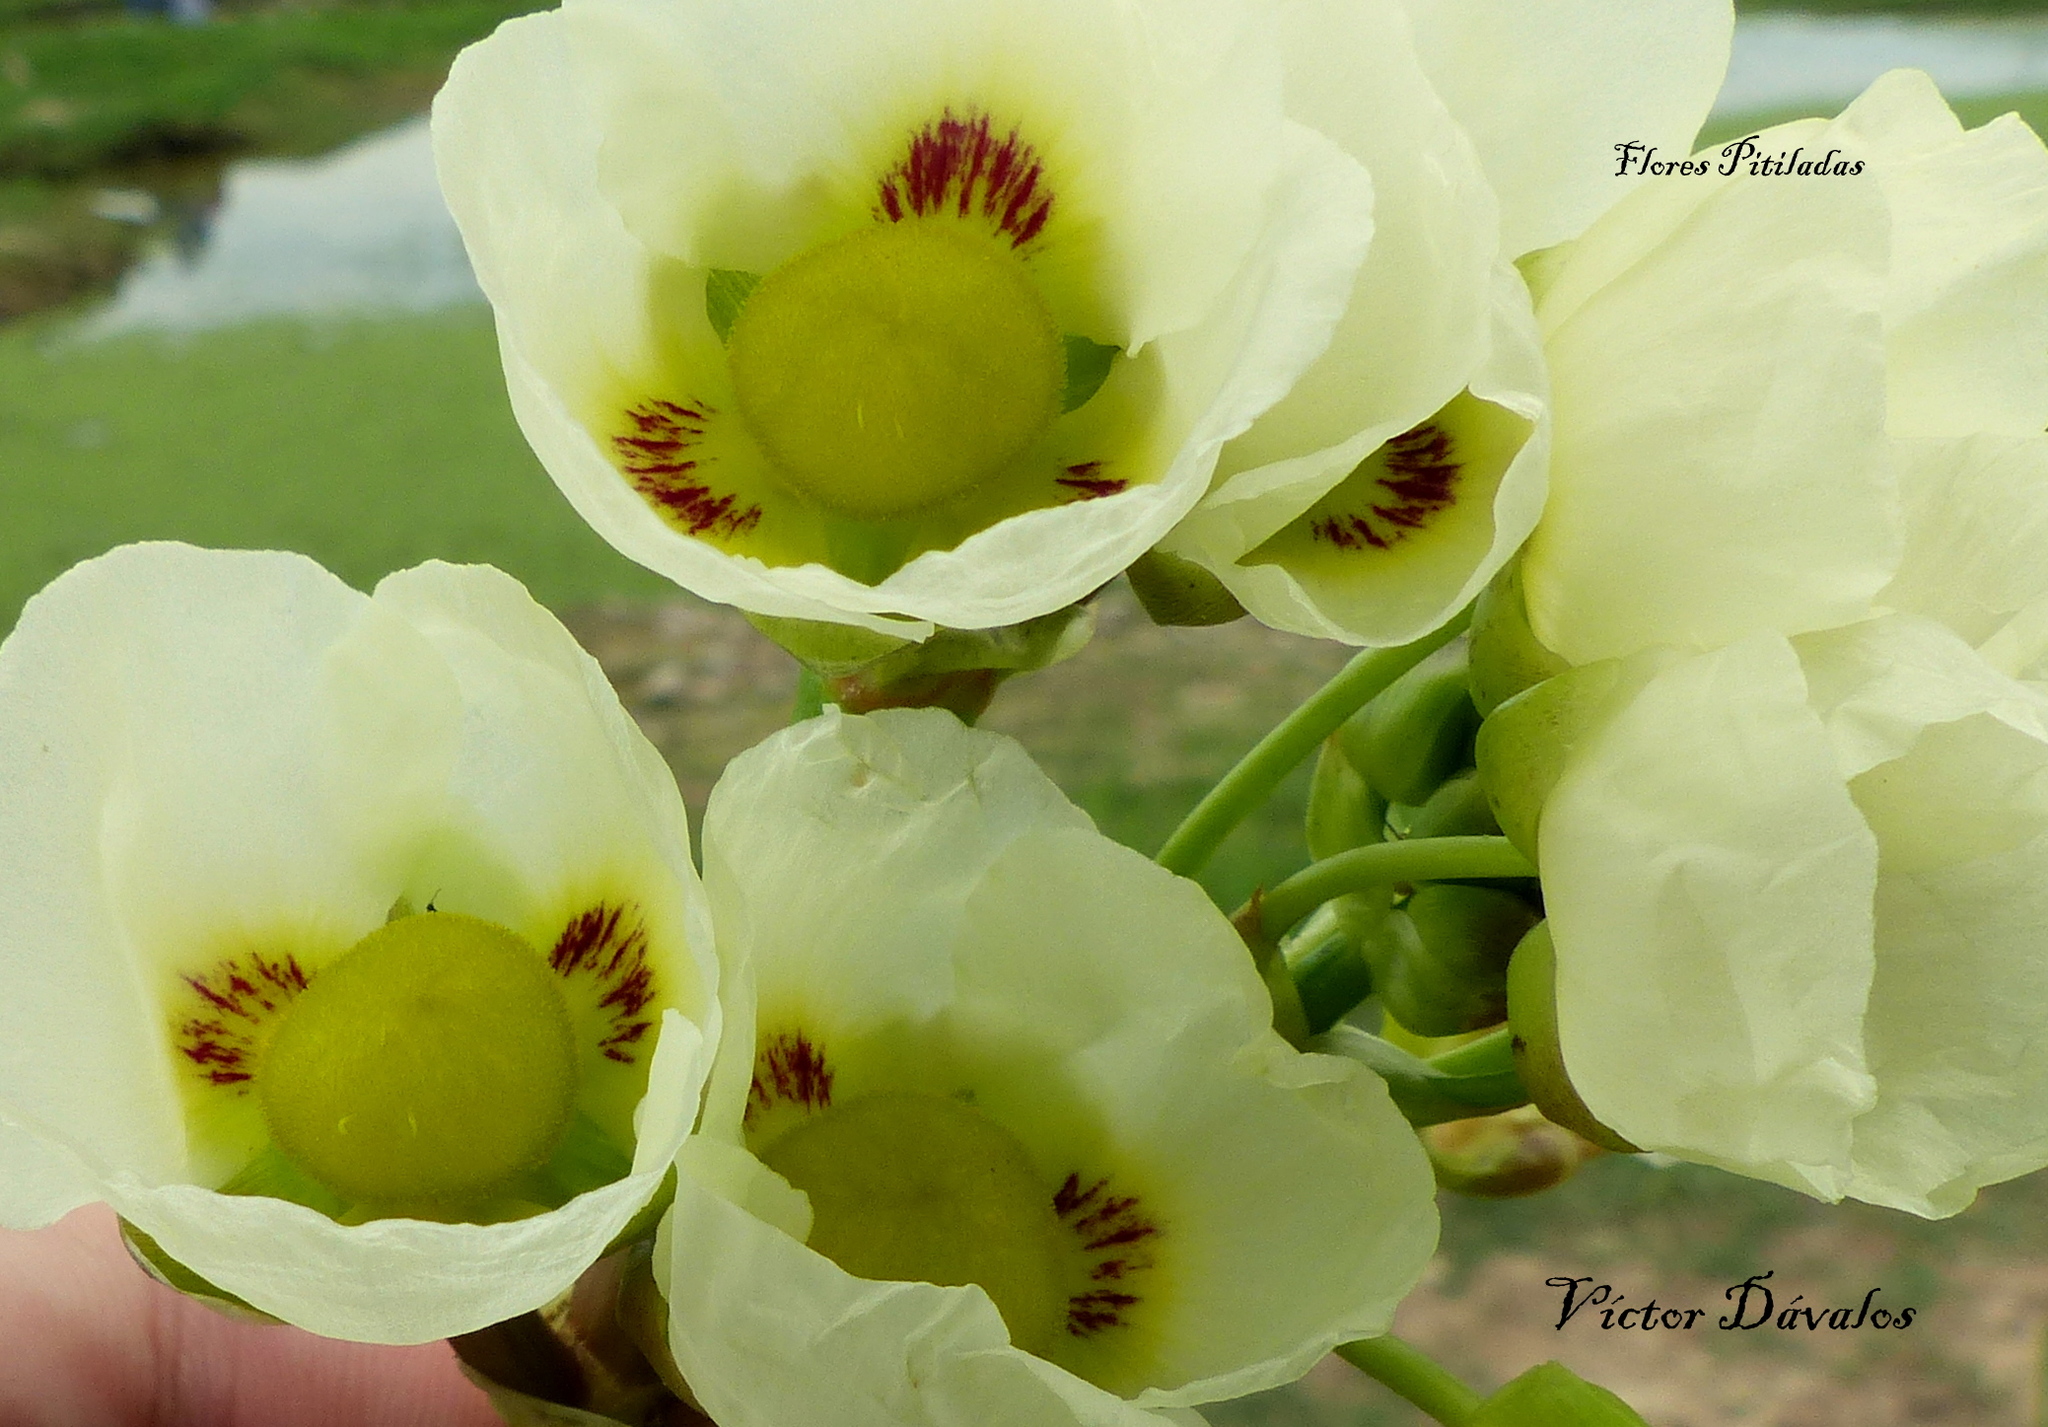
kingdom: Plantae
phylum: Tracheophyta
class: Liliopsida
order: Alismatales
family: Alismataceae
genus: Sagittaria
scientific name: Sagittaria montevidensis
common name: Giant arrowhead
